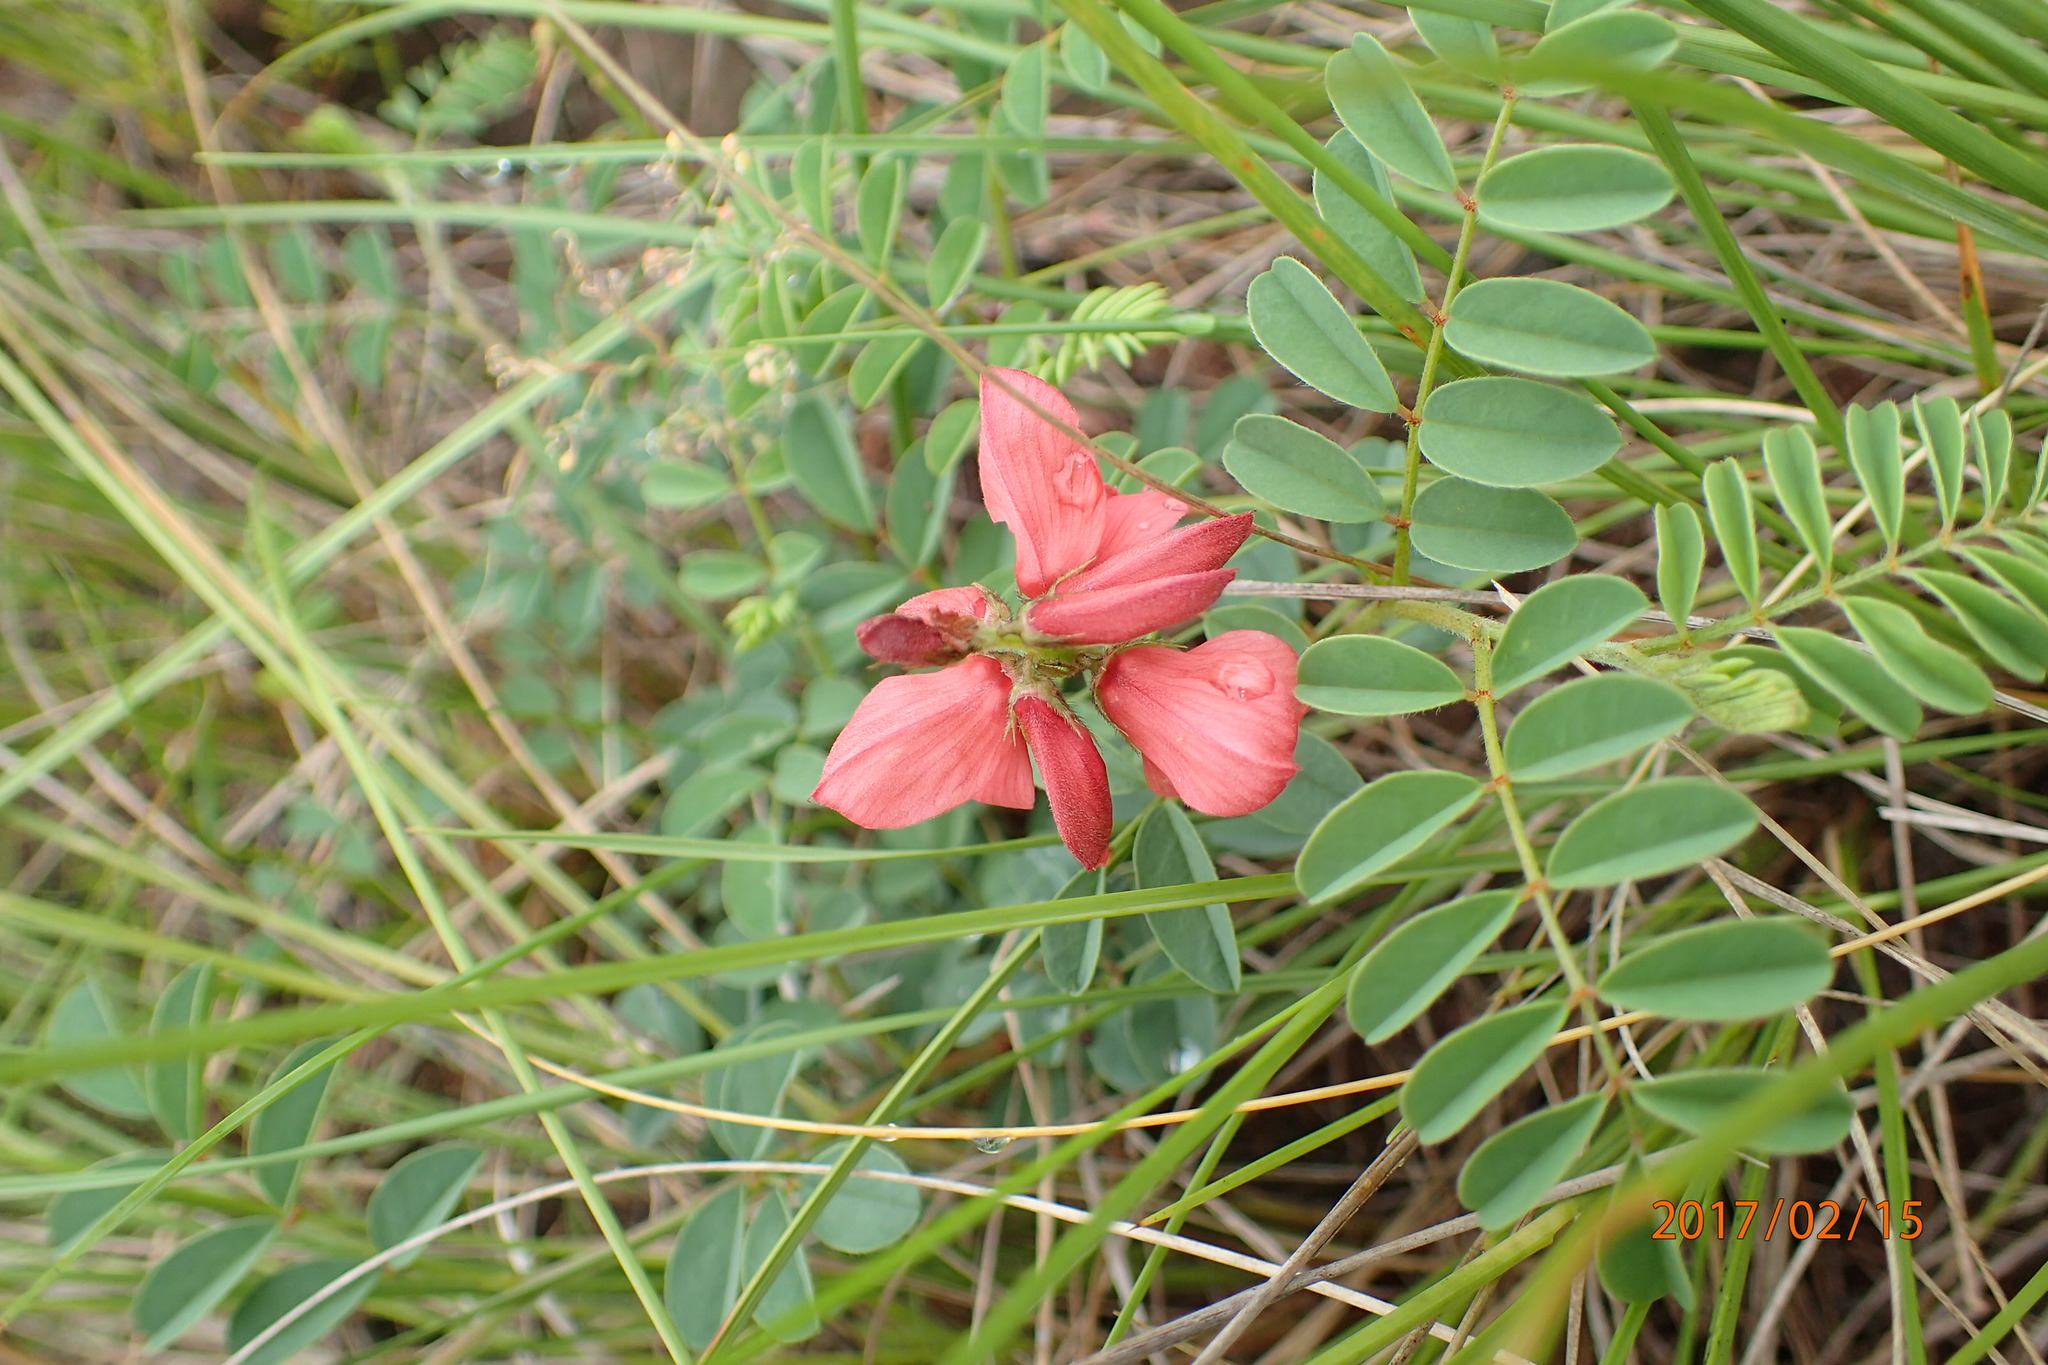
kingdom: Plantae
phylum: Tracheophyta
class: Magnoliopsida
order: Fabales
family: Fabaceae
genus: Indigofera
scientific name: Indigofera sanguinea
